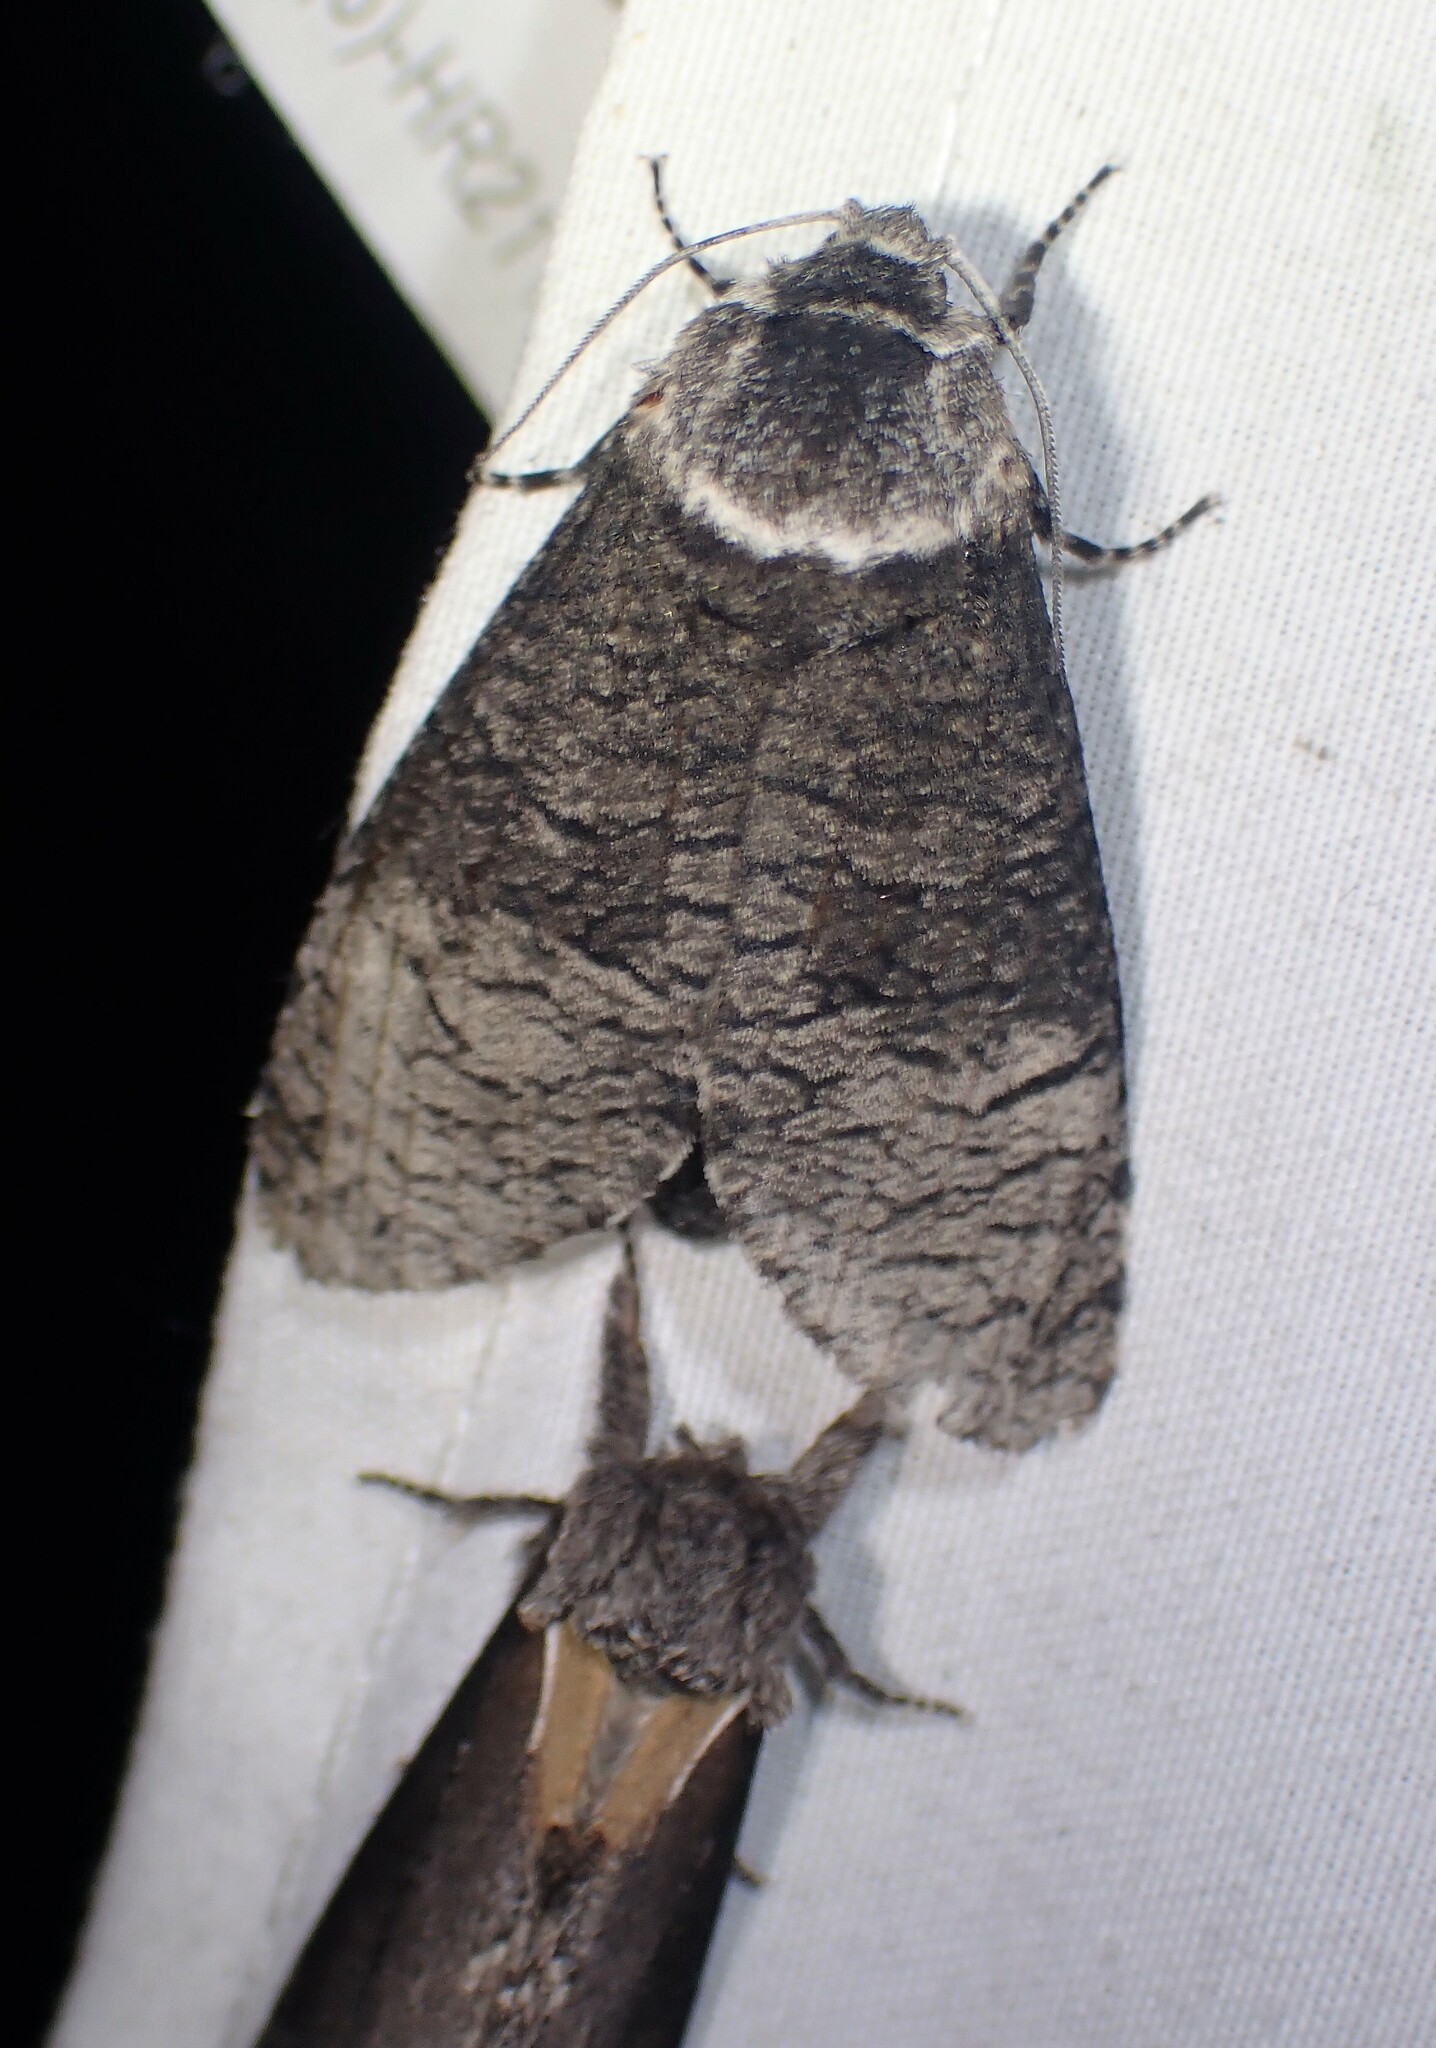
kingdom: Animalia
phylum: Arthropoda
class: Insecta
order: Lepidoptera
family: Cossidae
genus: Acossus
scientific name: Acossus centerensis
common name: Poplar carpenterworm moth
